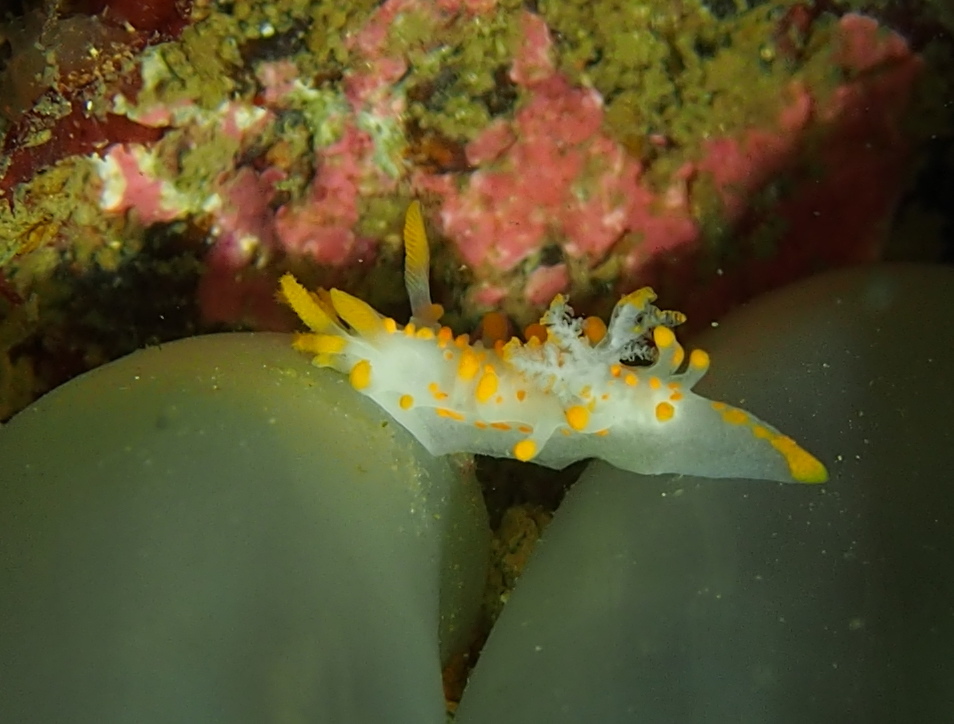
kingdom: Animalia
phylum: Mollusca
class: Gastropoda
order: Nudibranchia
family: Polyceridae
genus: Limacia
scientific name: Limacia clavigera
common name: Orange-clubbed sea slug
